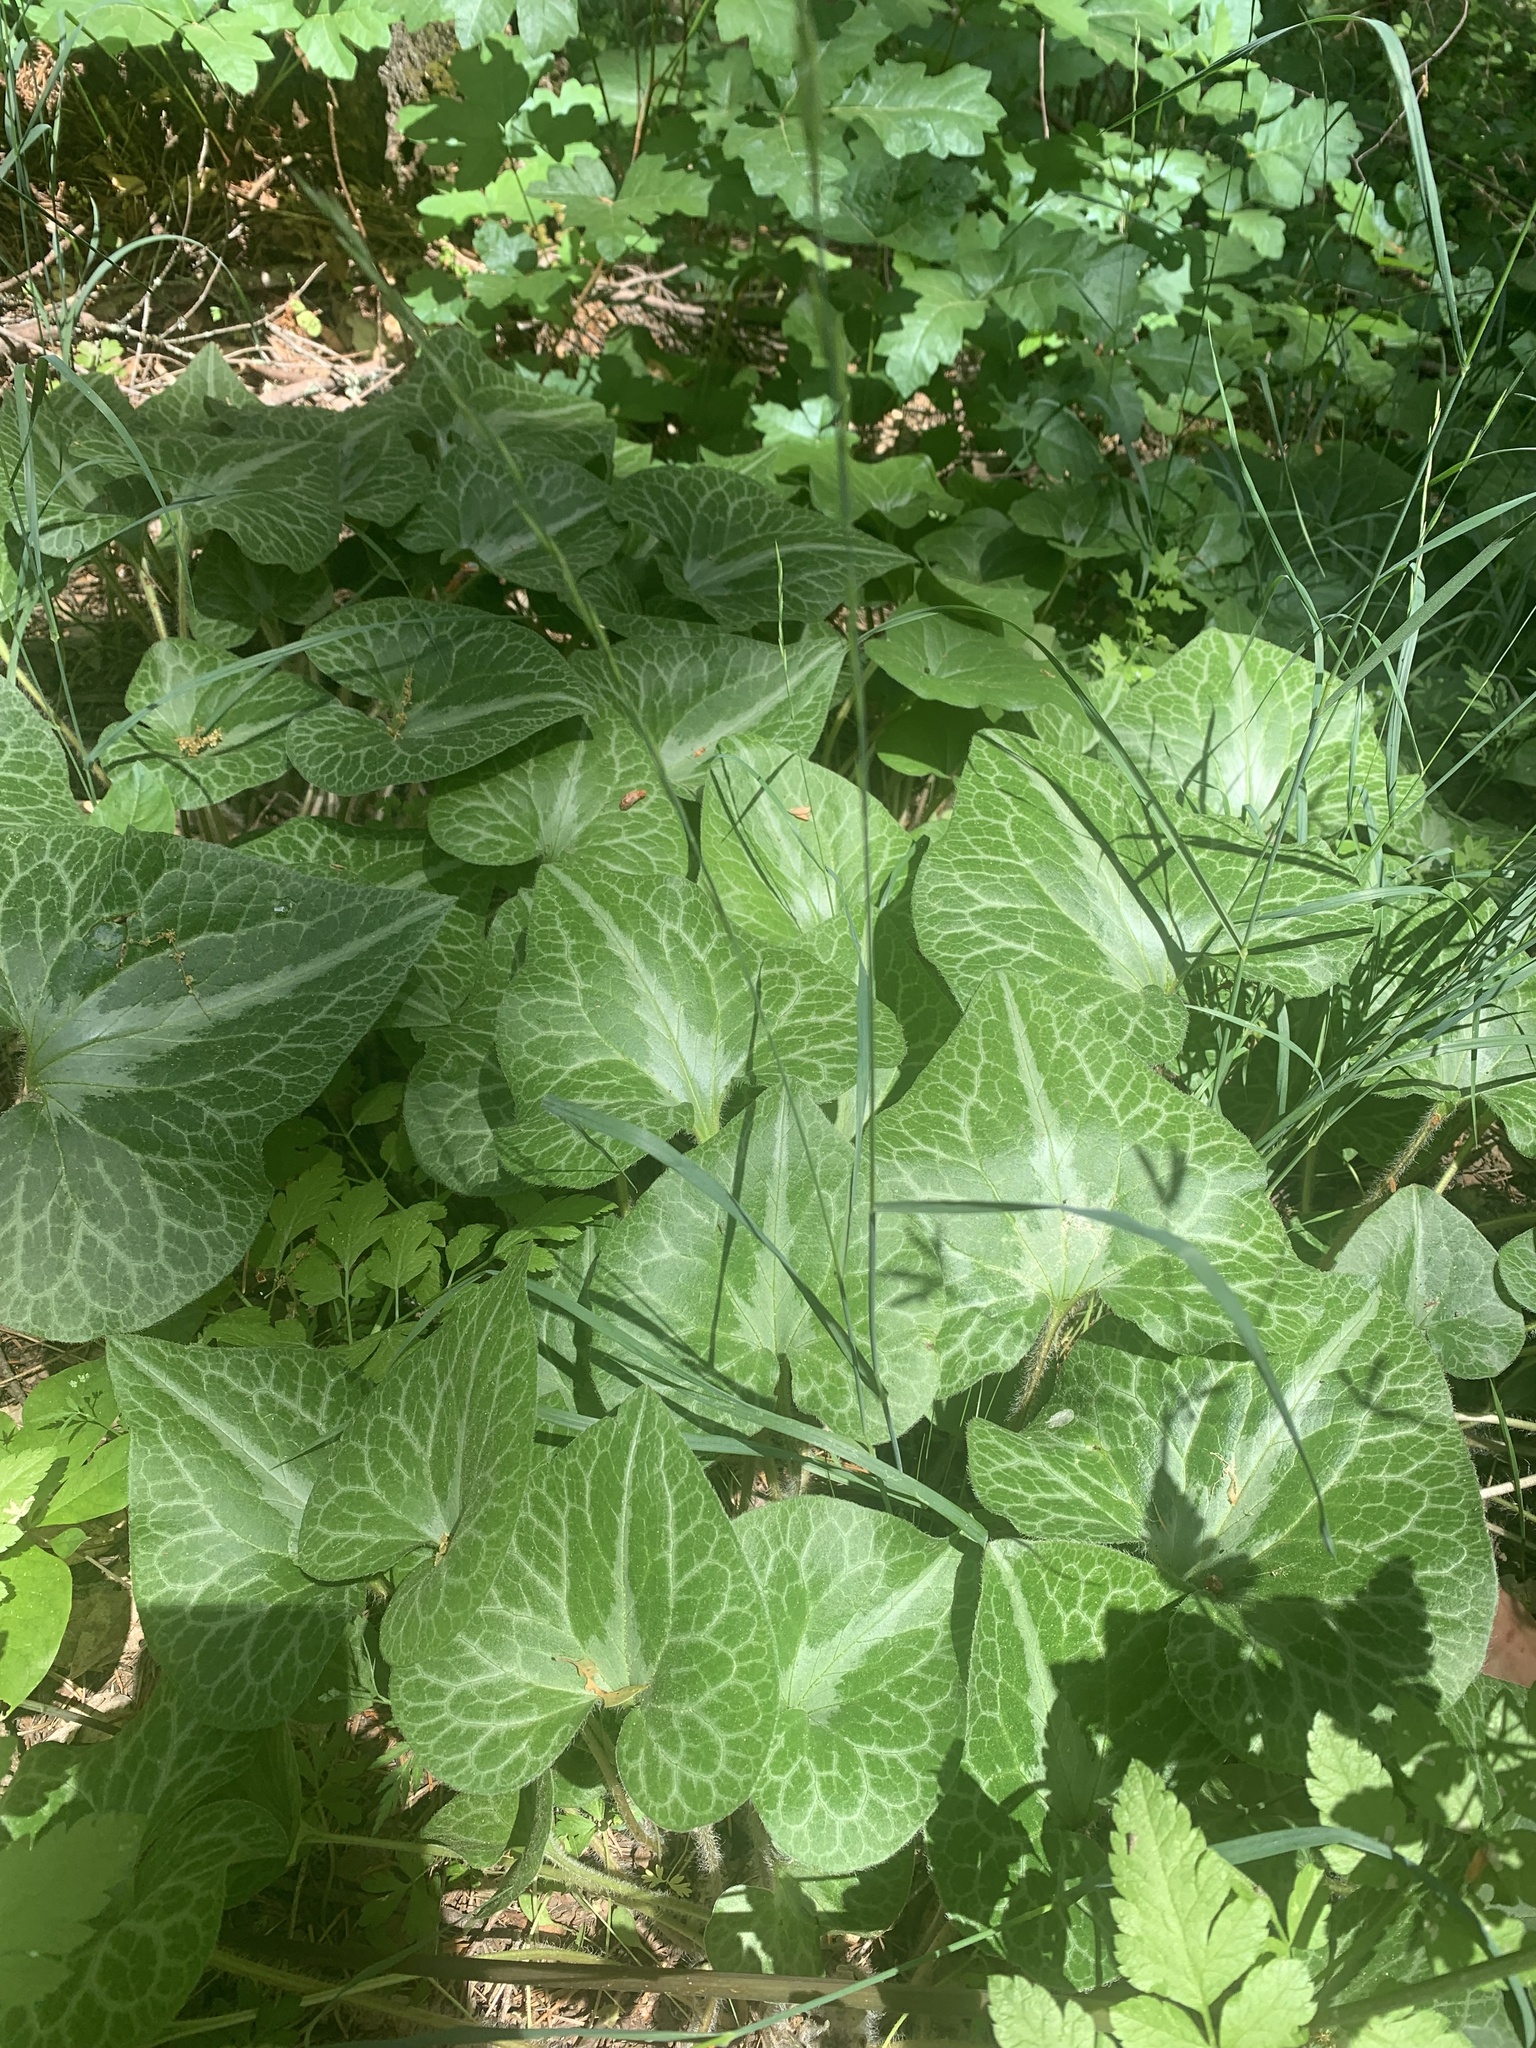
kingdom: Plantae
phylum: Tracheophyta
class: Magnoliopsida
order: Piperales
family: Aristolochiaceae
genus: Asarum
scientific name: Asarum hartwegii
